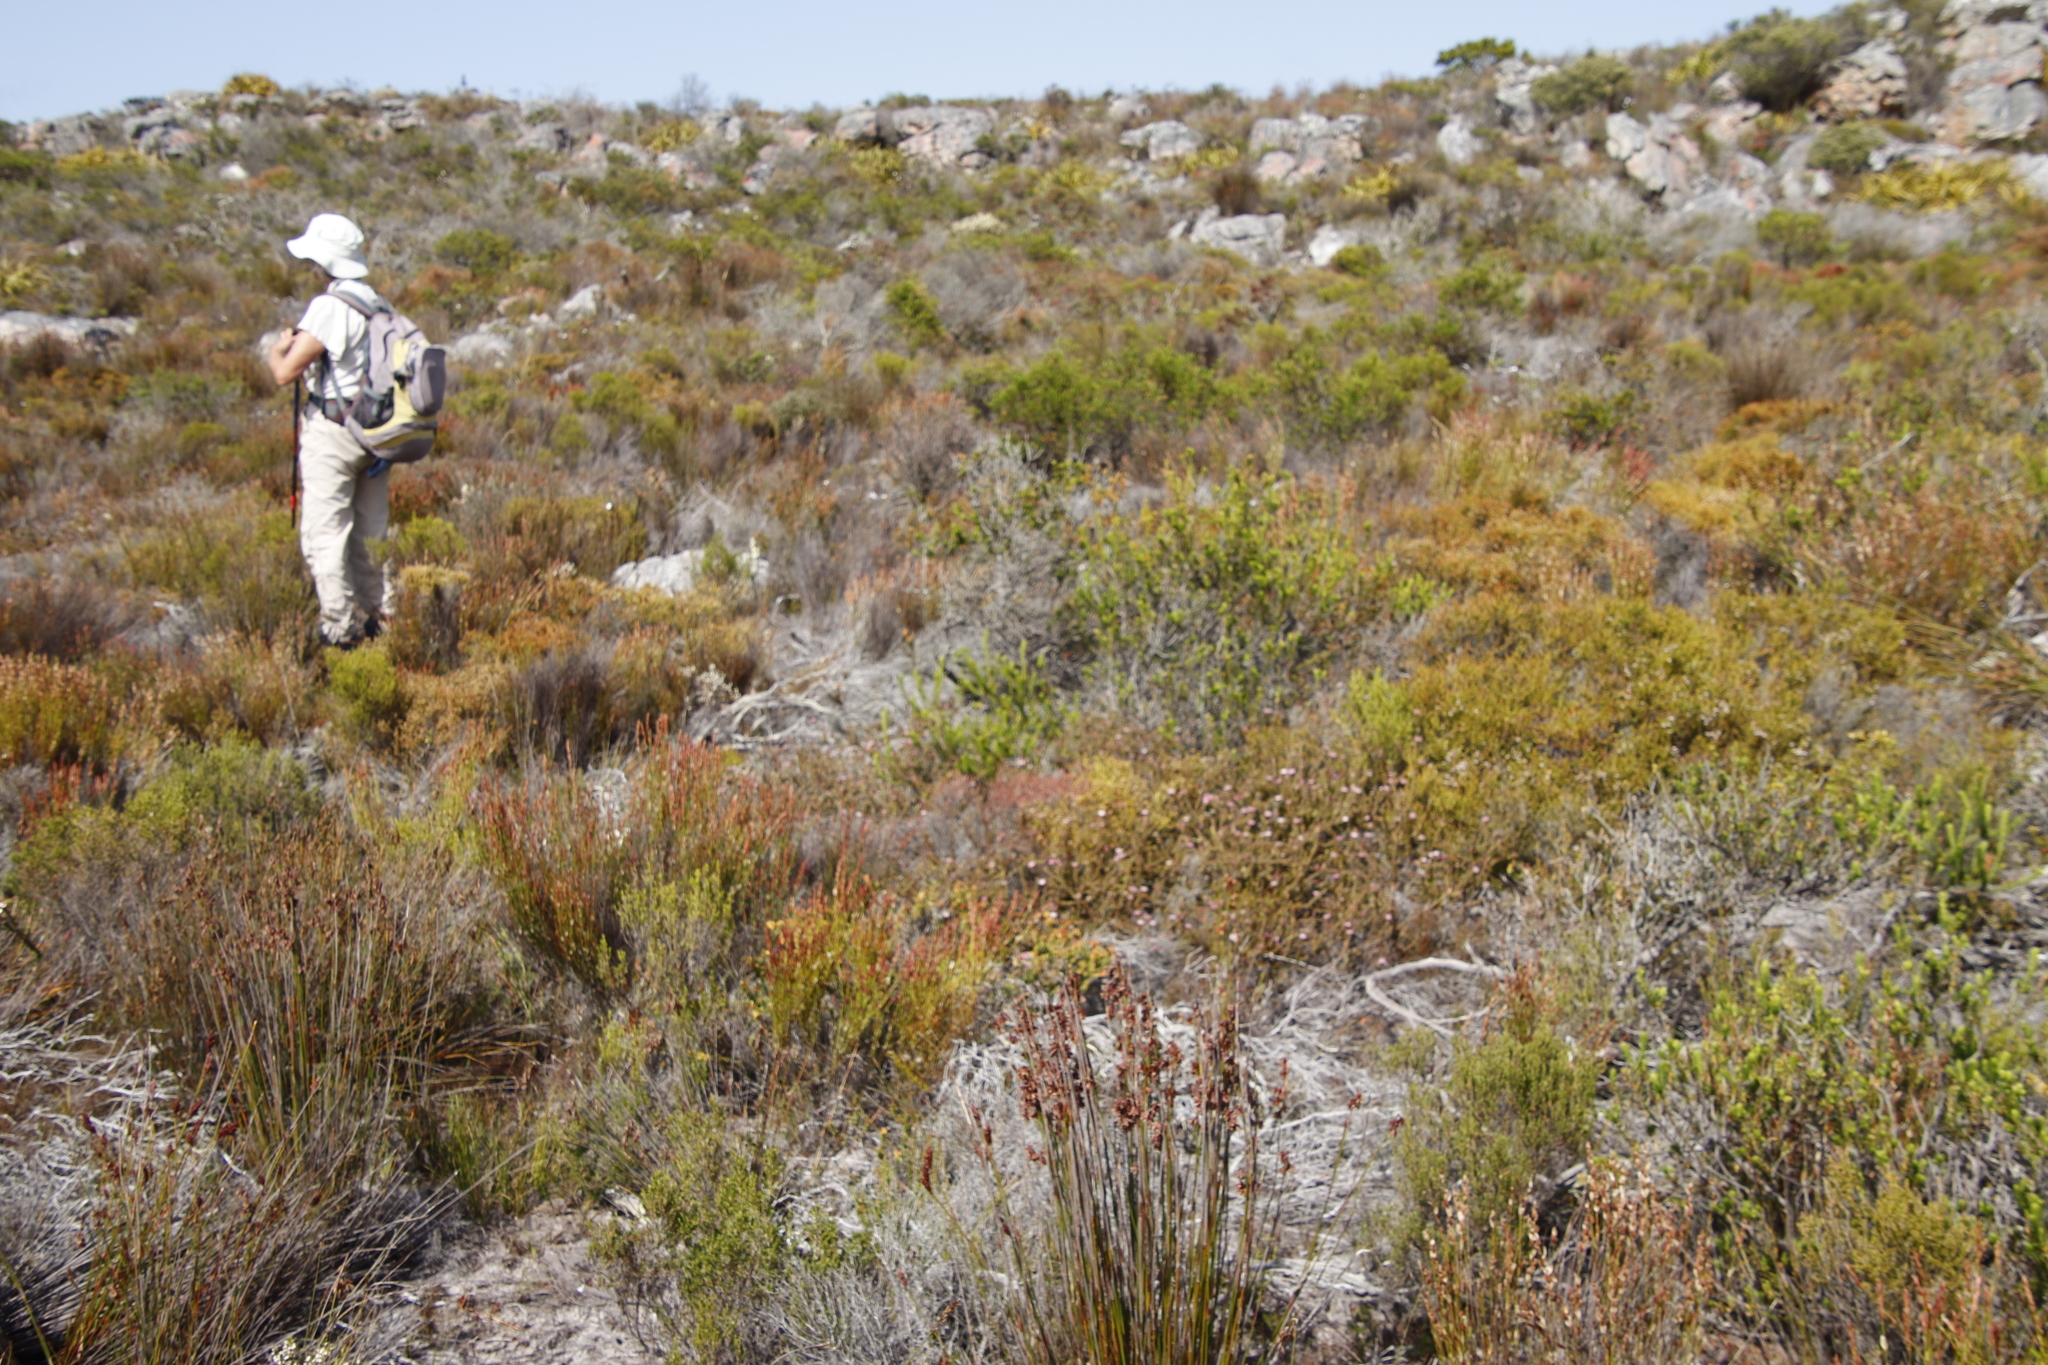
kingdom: Plantae
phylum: Tracheophyta
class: Magnoliopsida
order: Proteales
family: Proteaceae
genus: Diastella
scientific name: Diastella divaricata
